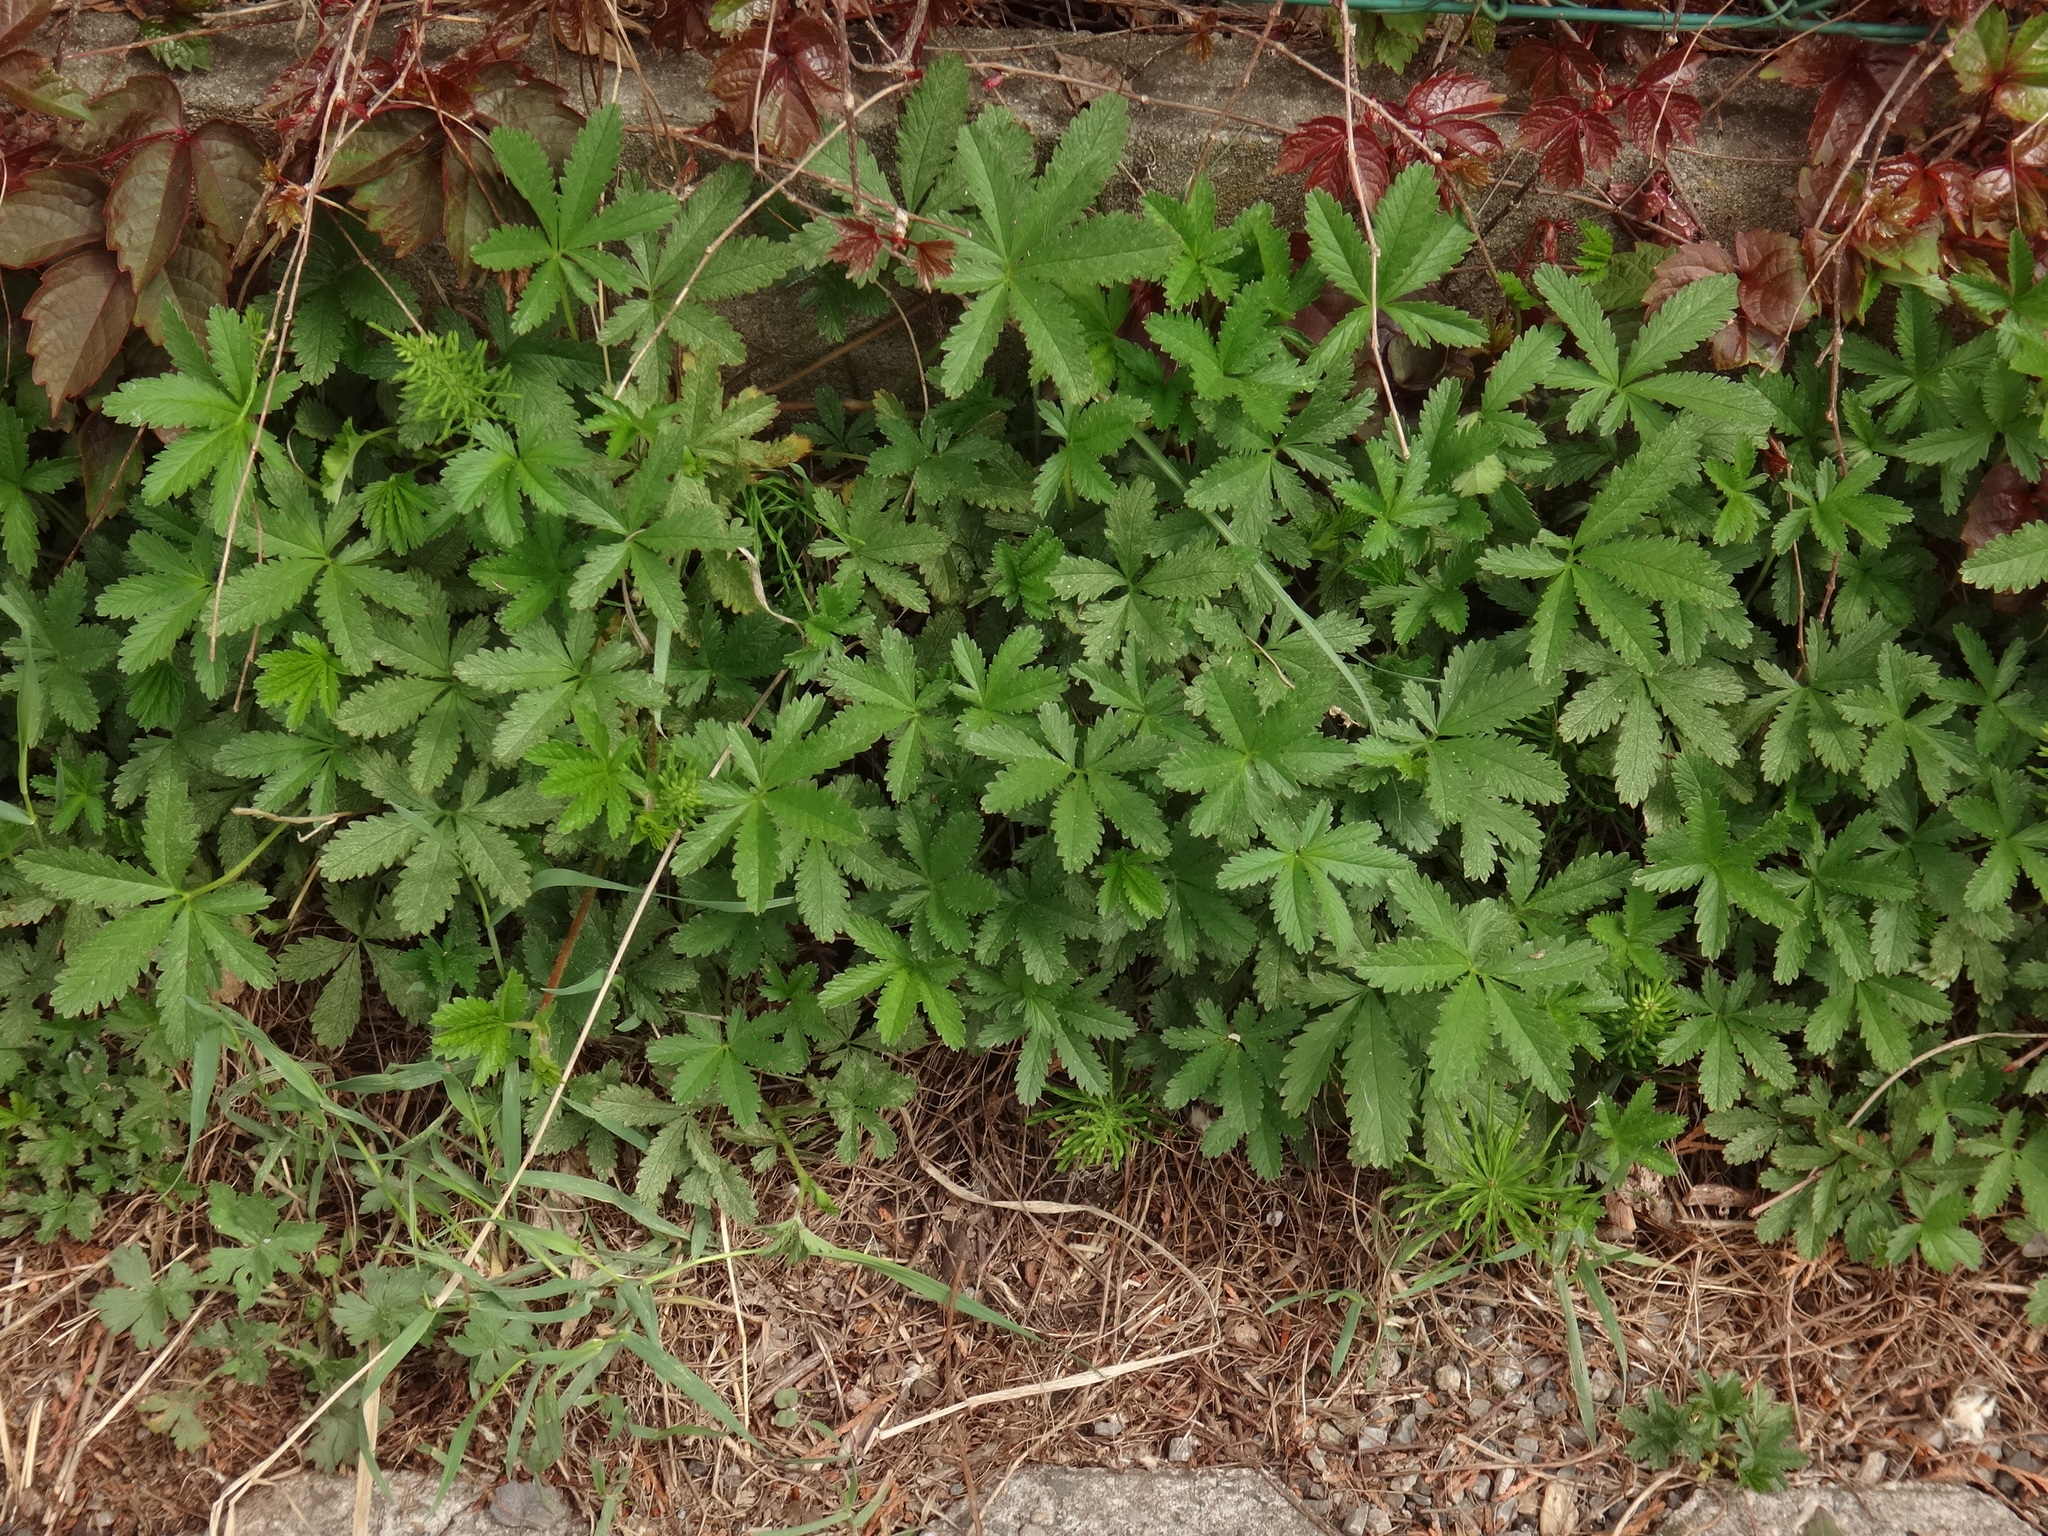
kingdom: Plantae
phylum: Tracheophyta
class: Magnoliopsida
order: Rosales
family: Rosaceae
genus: Potentilla
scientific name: Potentilla reptans
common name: Creeping cinquefoil
